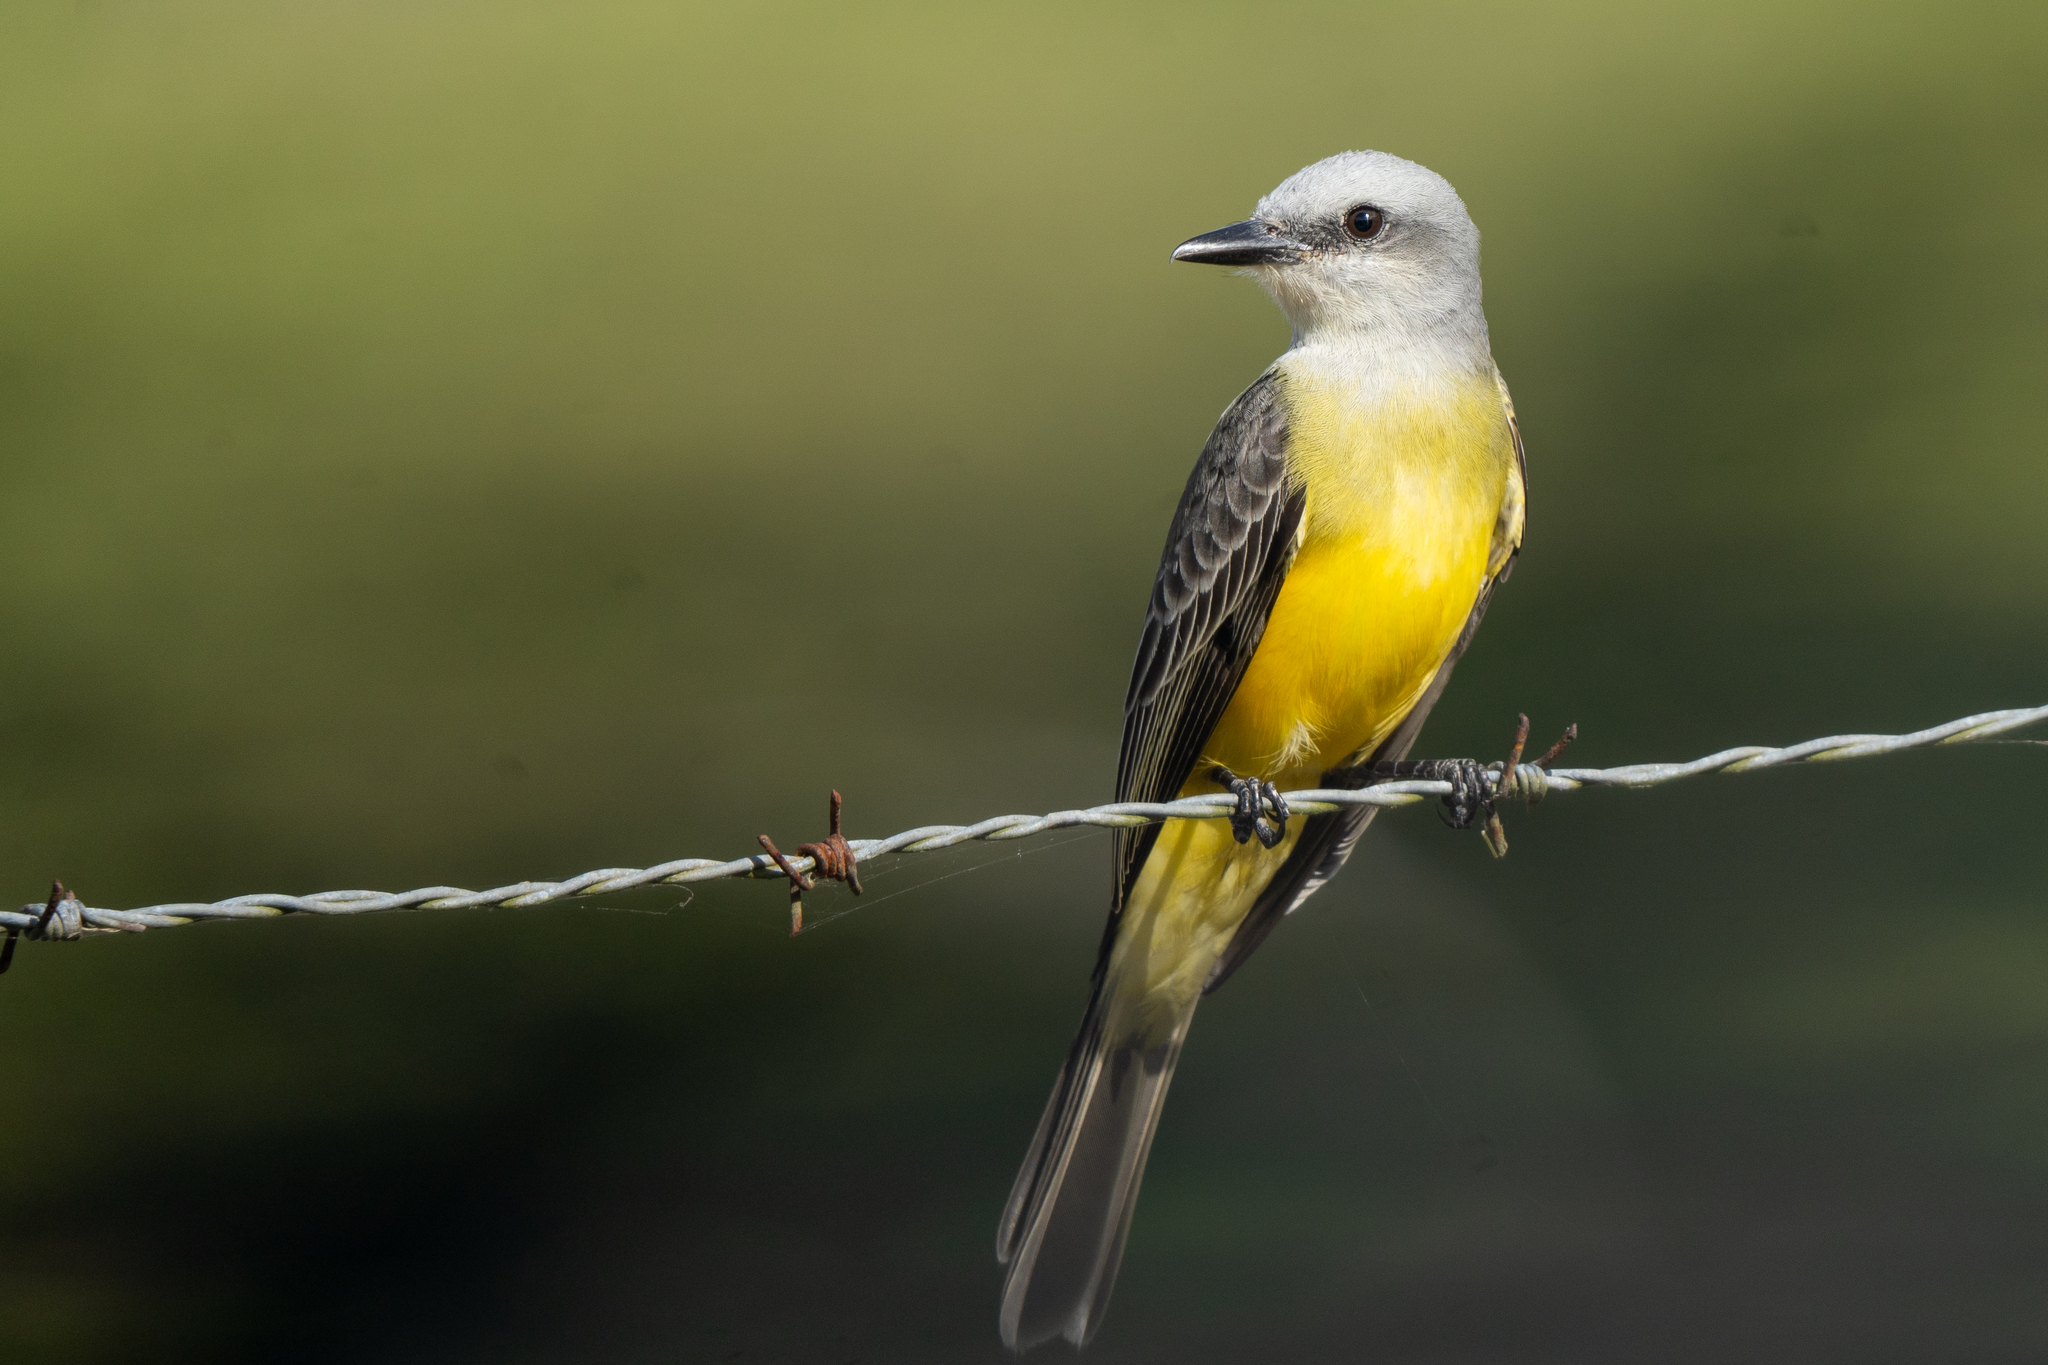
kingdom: Animalia
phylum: Chordata
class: Aves
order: Passeriformes
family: Tyrannidae
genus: Tyrannus
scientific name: Tyrannus melancholicus
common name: Tropical kingbird
